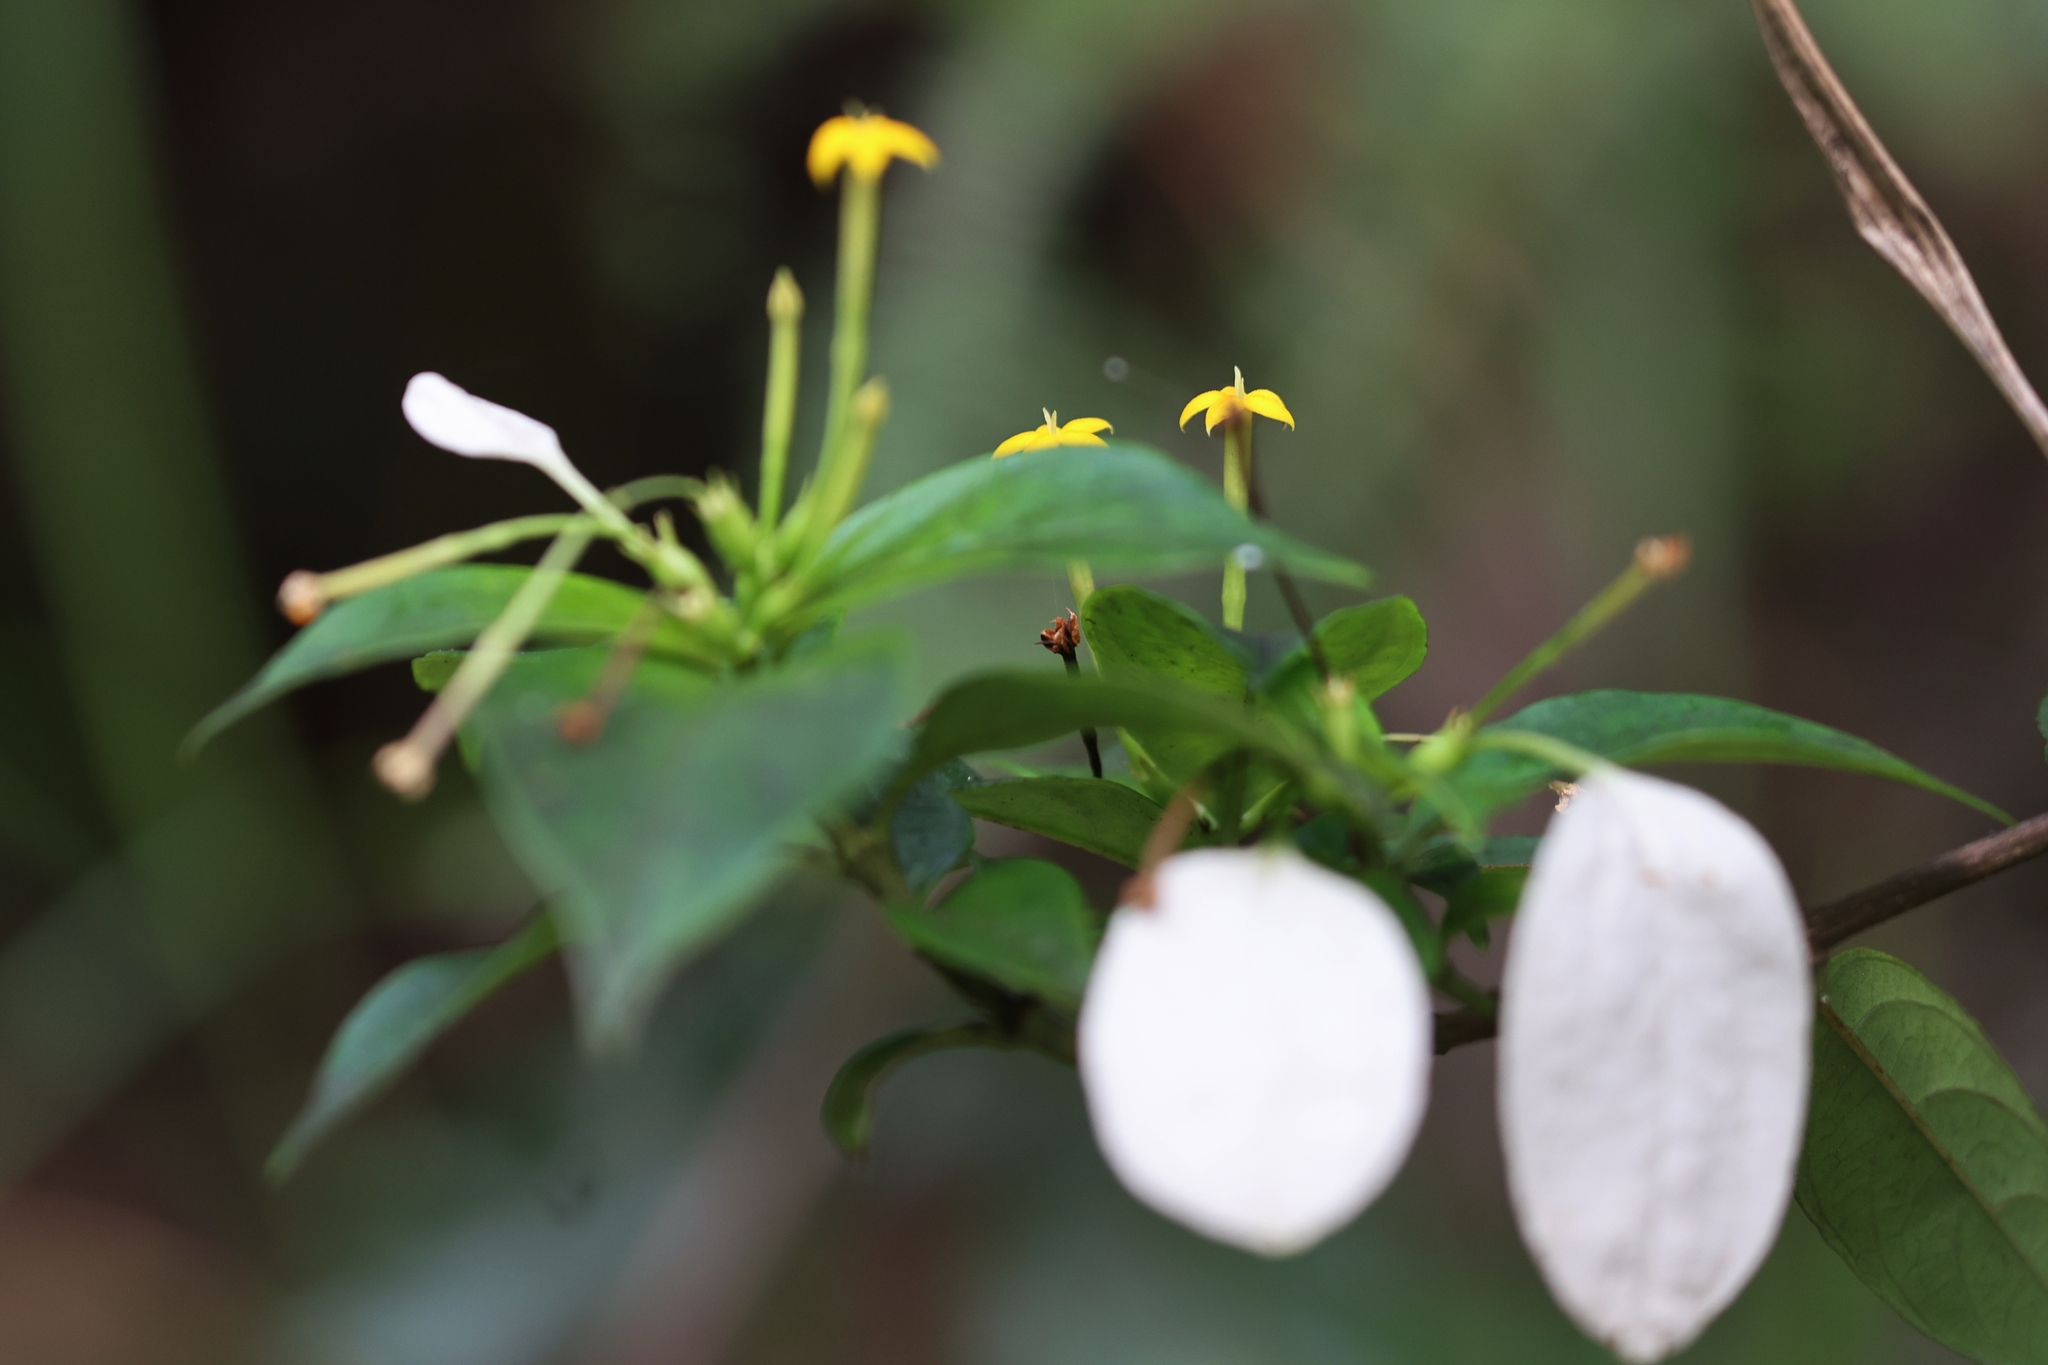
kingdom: Plantae
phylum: Tracheophyta
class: Magnoliopsida
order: Gentianales
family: Rubiaceae
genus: Mussaenda
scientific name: Mussaenda pubescens
